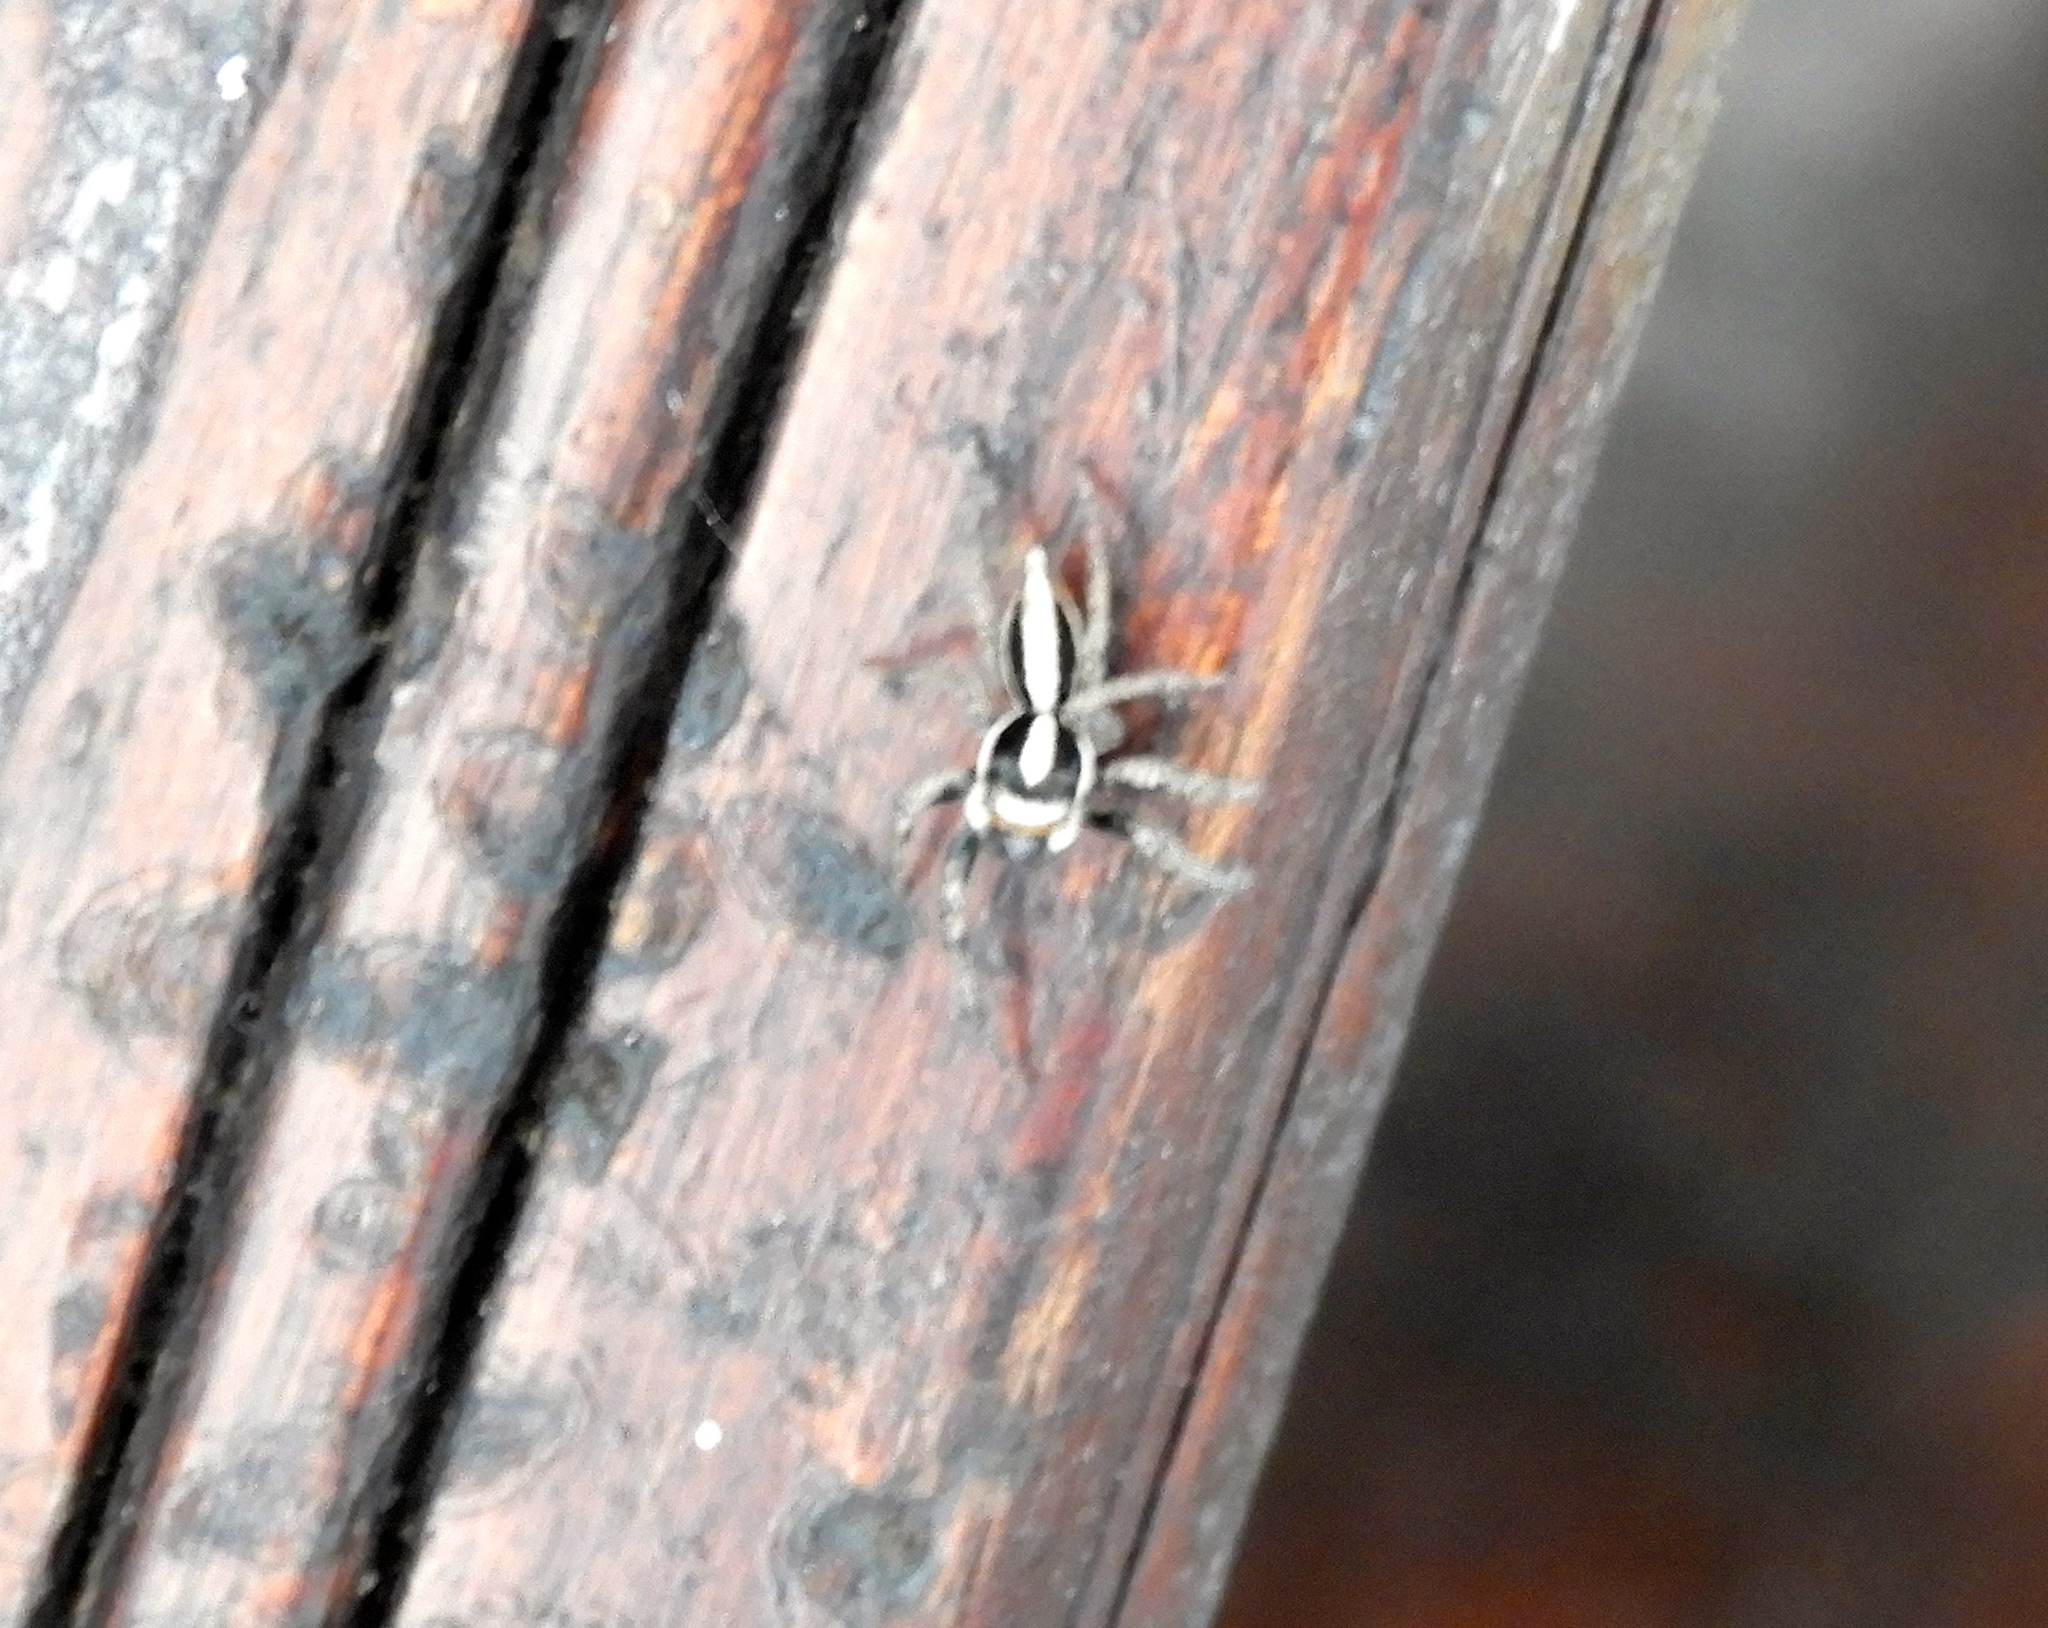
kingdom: Animalia
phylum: Arthropoda
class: Arachnida
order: Araneae
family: Salticidae
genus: Leptofreya
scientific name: Leptofreya
